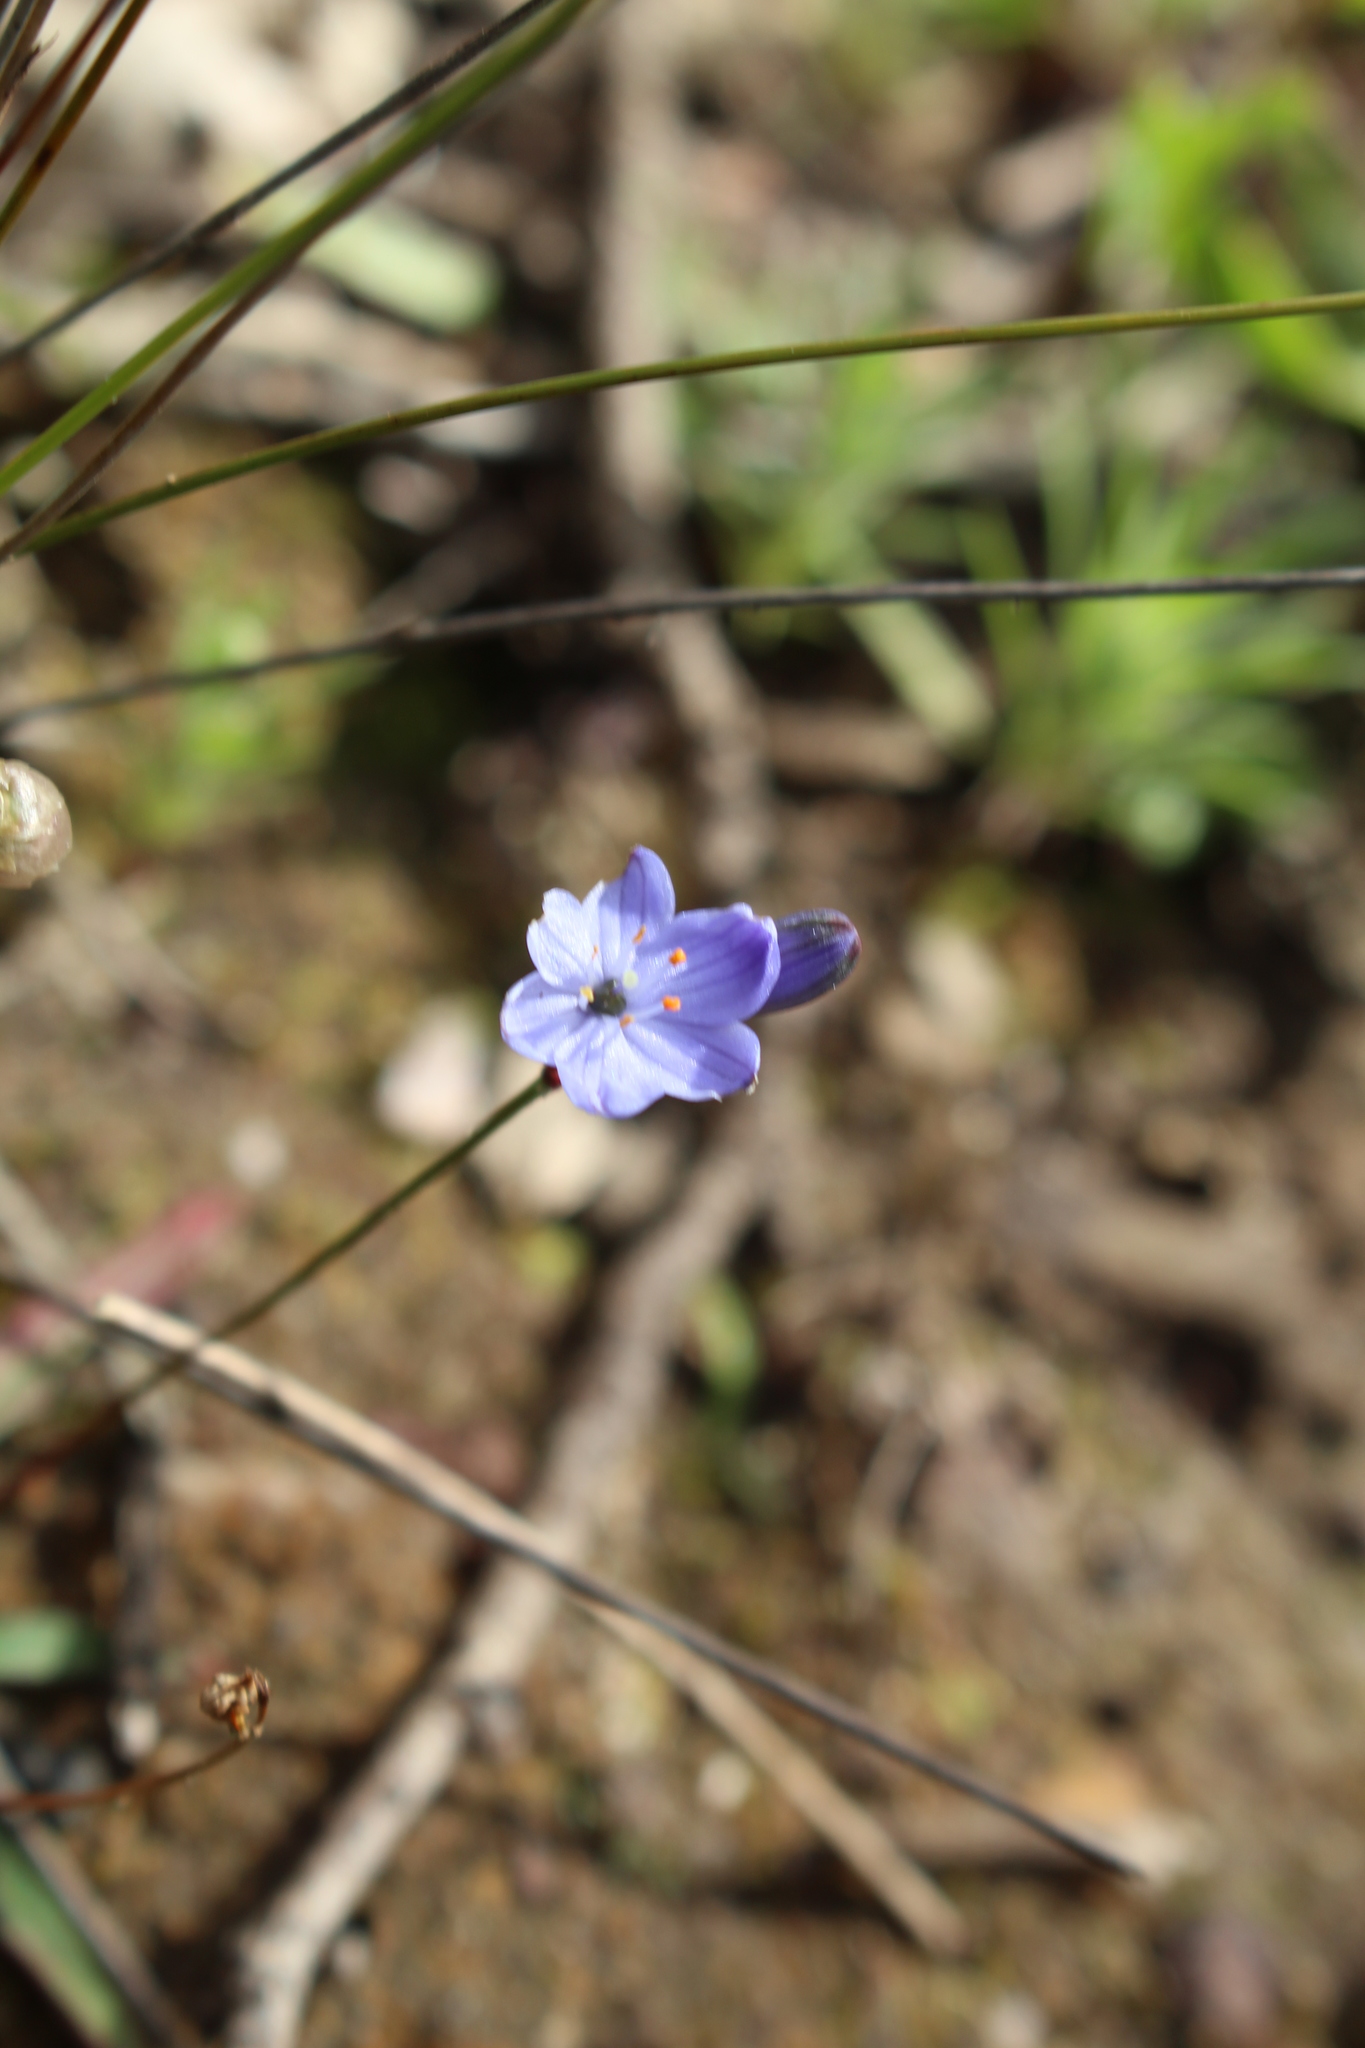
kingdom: Plantae
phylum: Tracheophyta
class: Liliopsida
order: Asparagales
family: Asphodelaceae
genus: Chamaescilla
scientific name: Chamaescilla corymbosa
